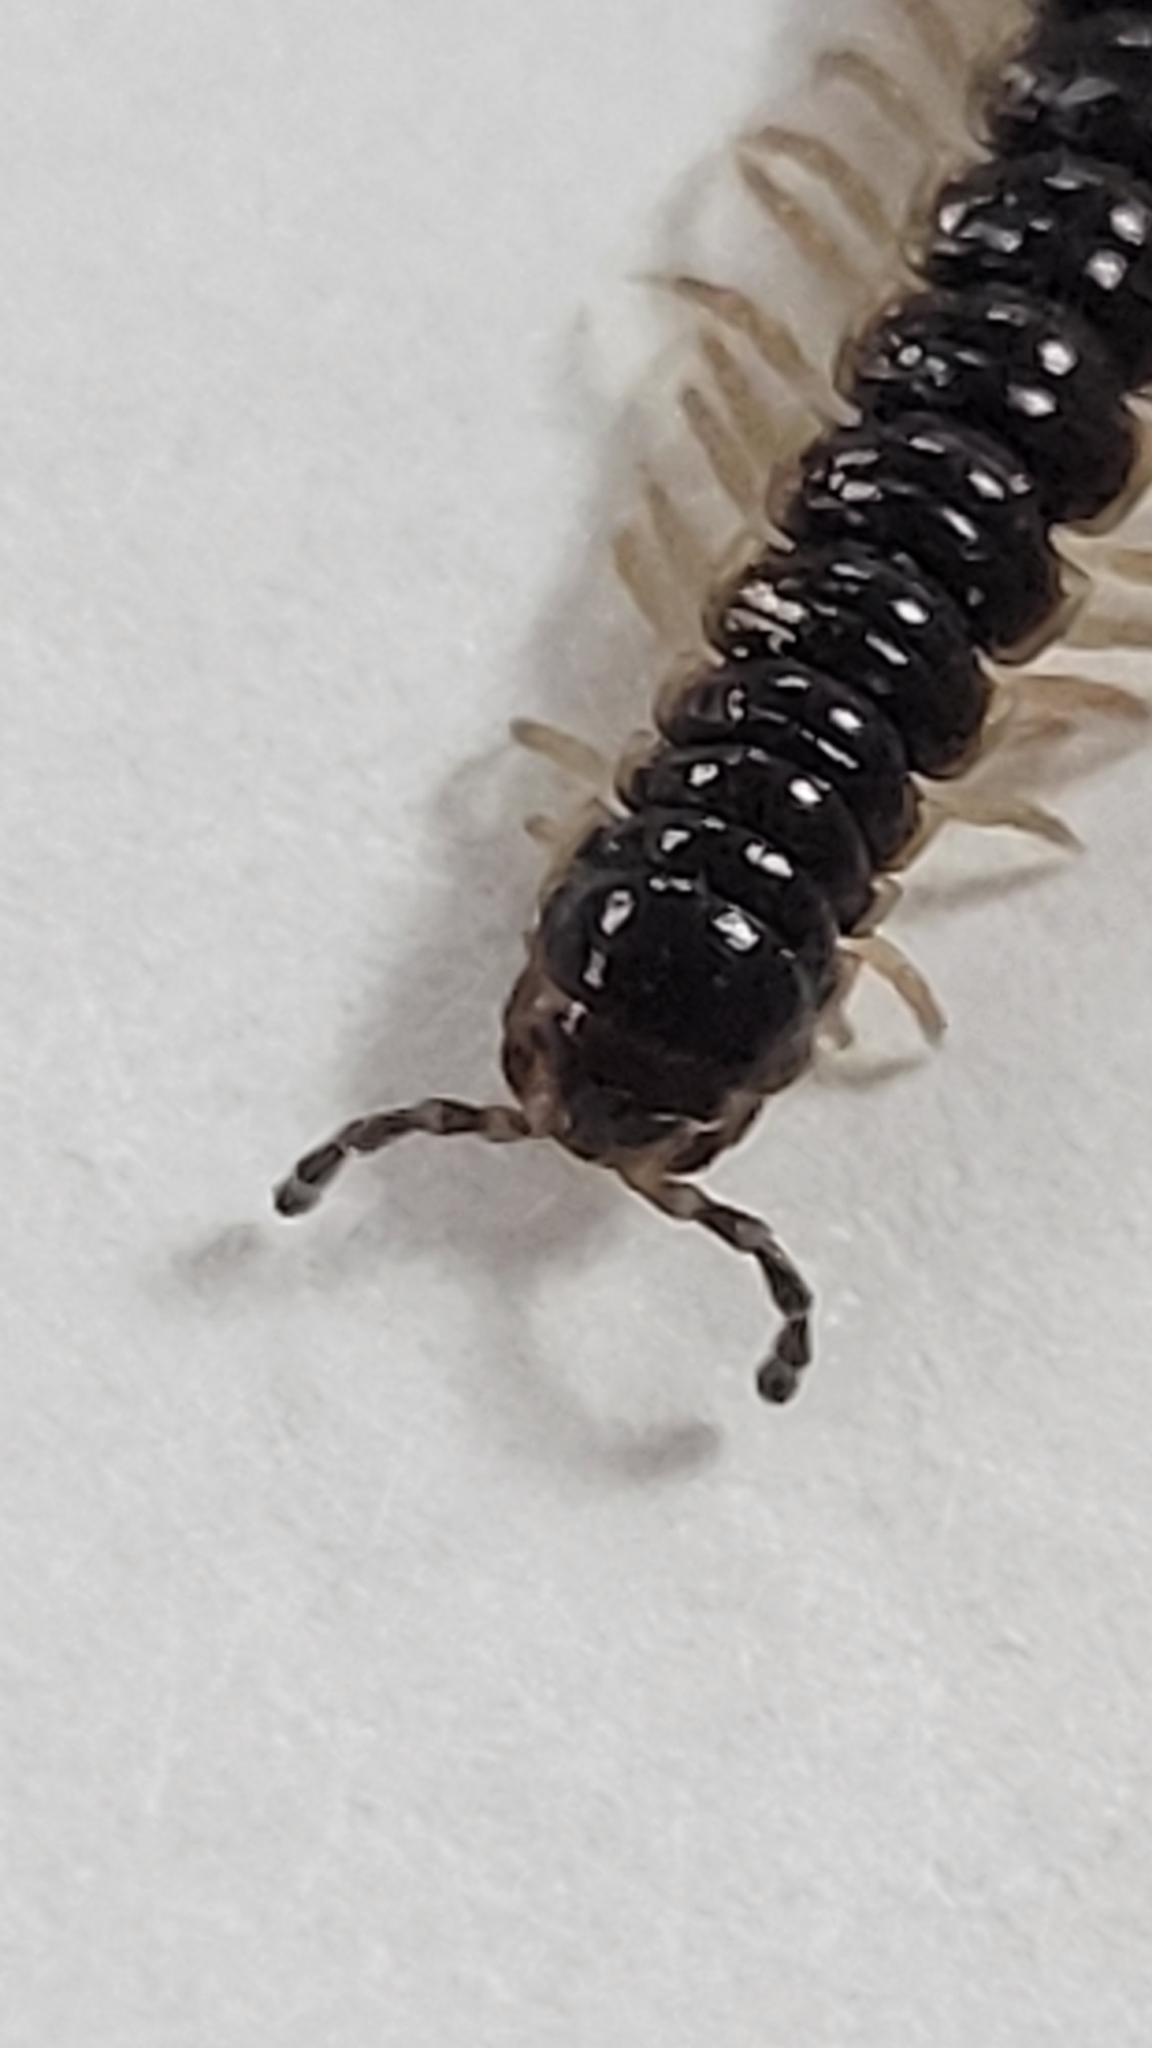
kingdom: Animalia
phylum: Arthropoda
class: Diplopoda
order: Polydesmida
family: Paradoxosomatidae
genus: Oxidus
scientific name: Oxidus gracilis
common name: Greenhouse millipede
